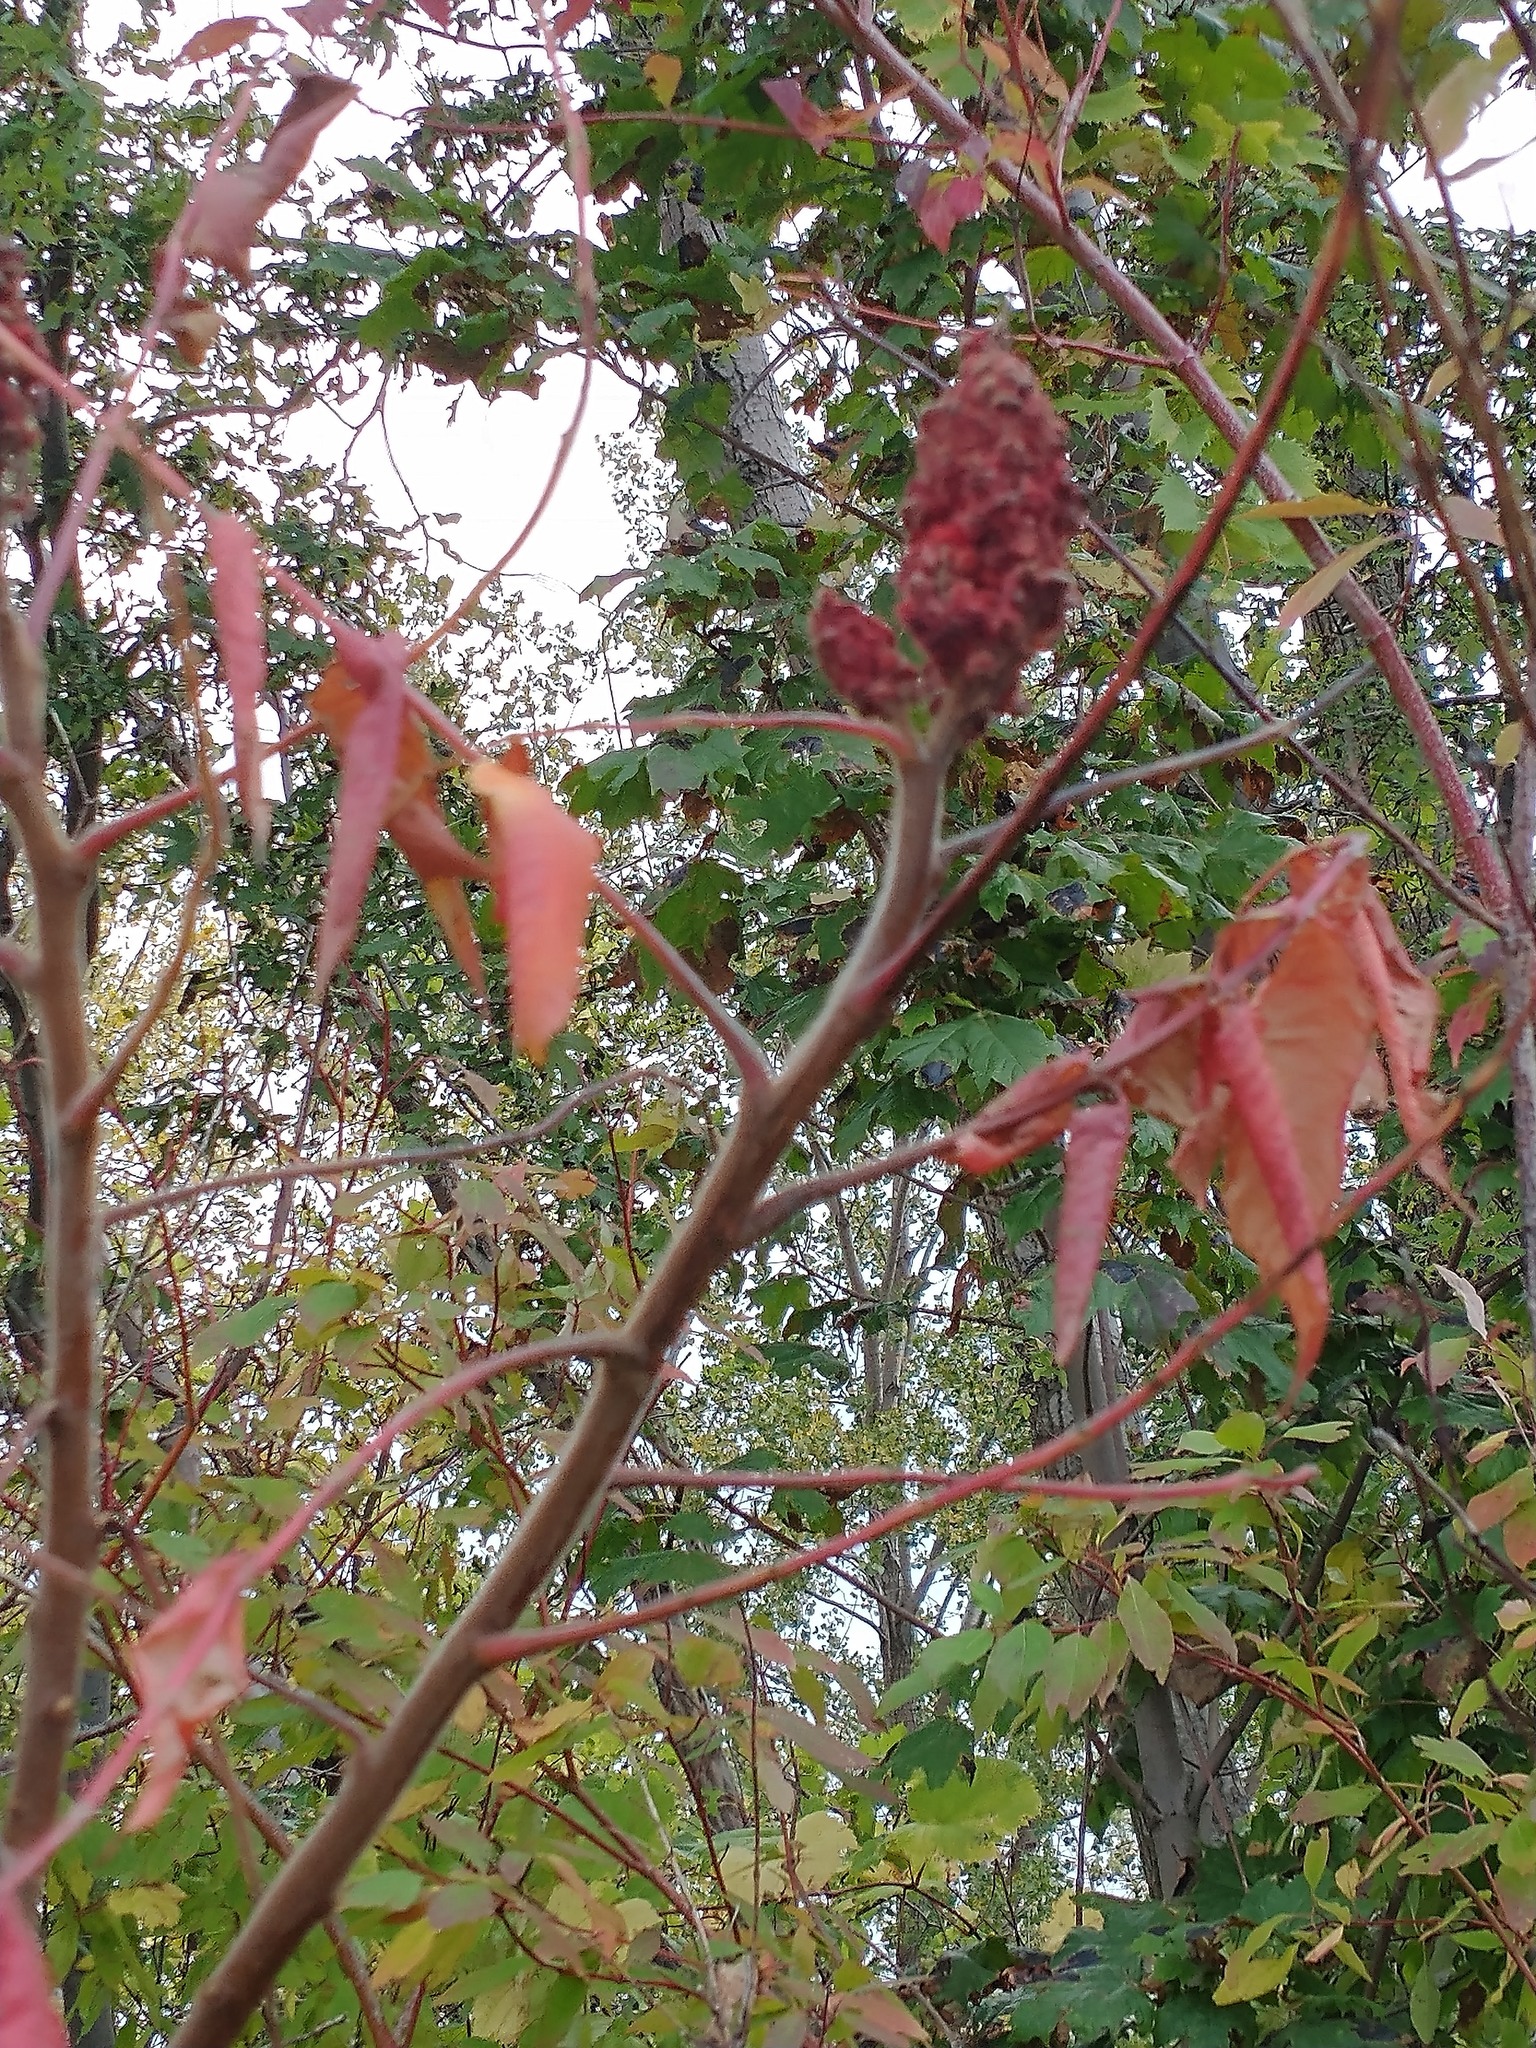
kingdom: Plantae
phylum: Tracheophyta
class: Magnoliopsida
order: Sapindales
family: Anacardiaceae
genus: Rhus
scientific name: Rhus typhina
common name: Staghorn sumac
